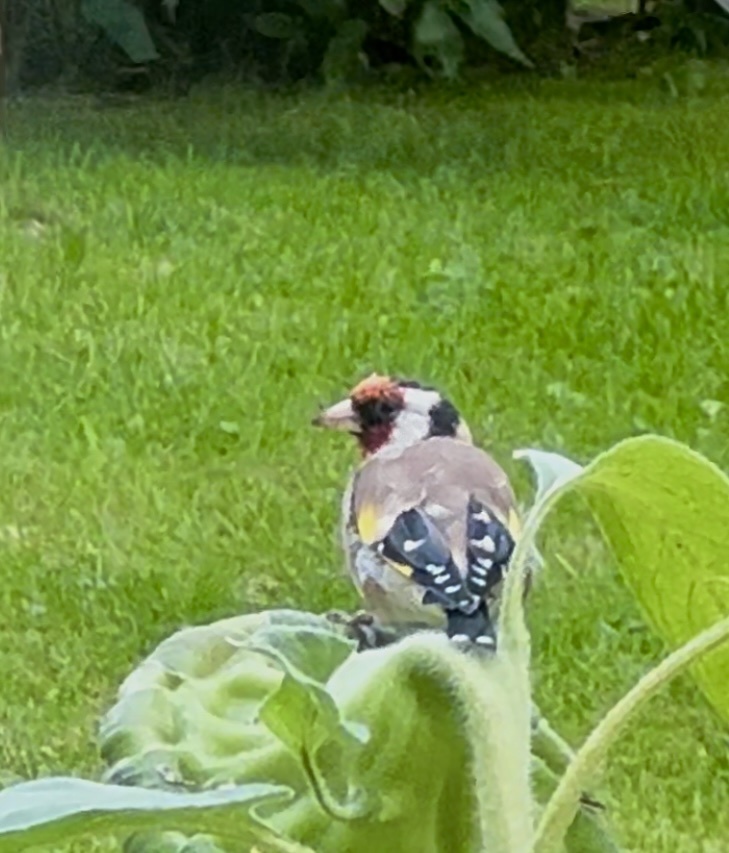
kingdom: Animalia
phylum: Chordata
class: Aves
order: Passeriformes
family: Fringillidae
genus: Carduelis
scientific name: Carduelis carduelis
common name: European goldfinch
